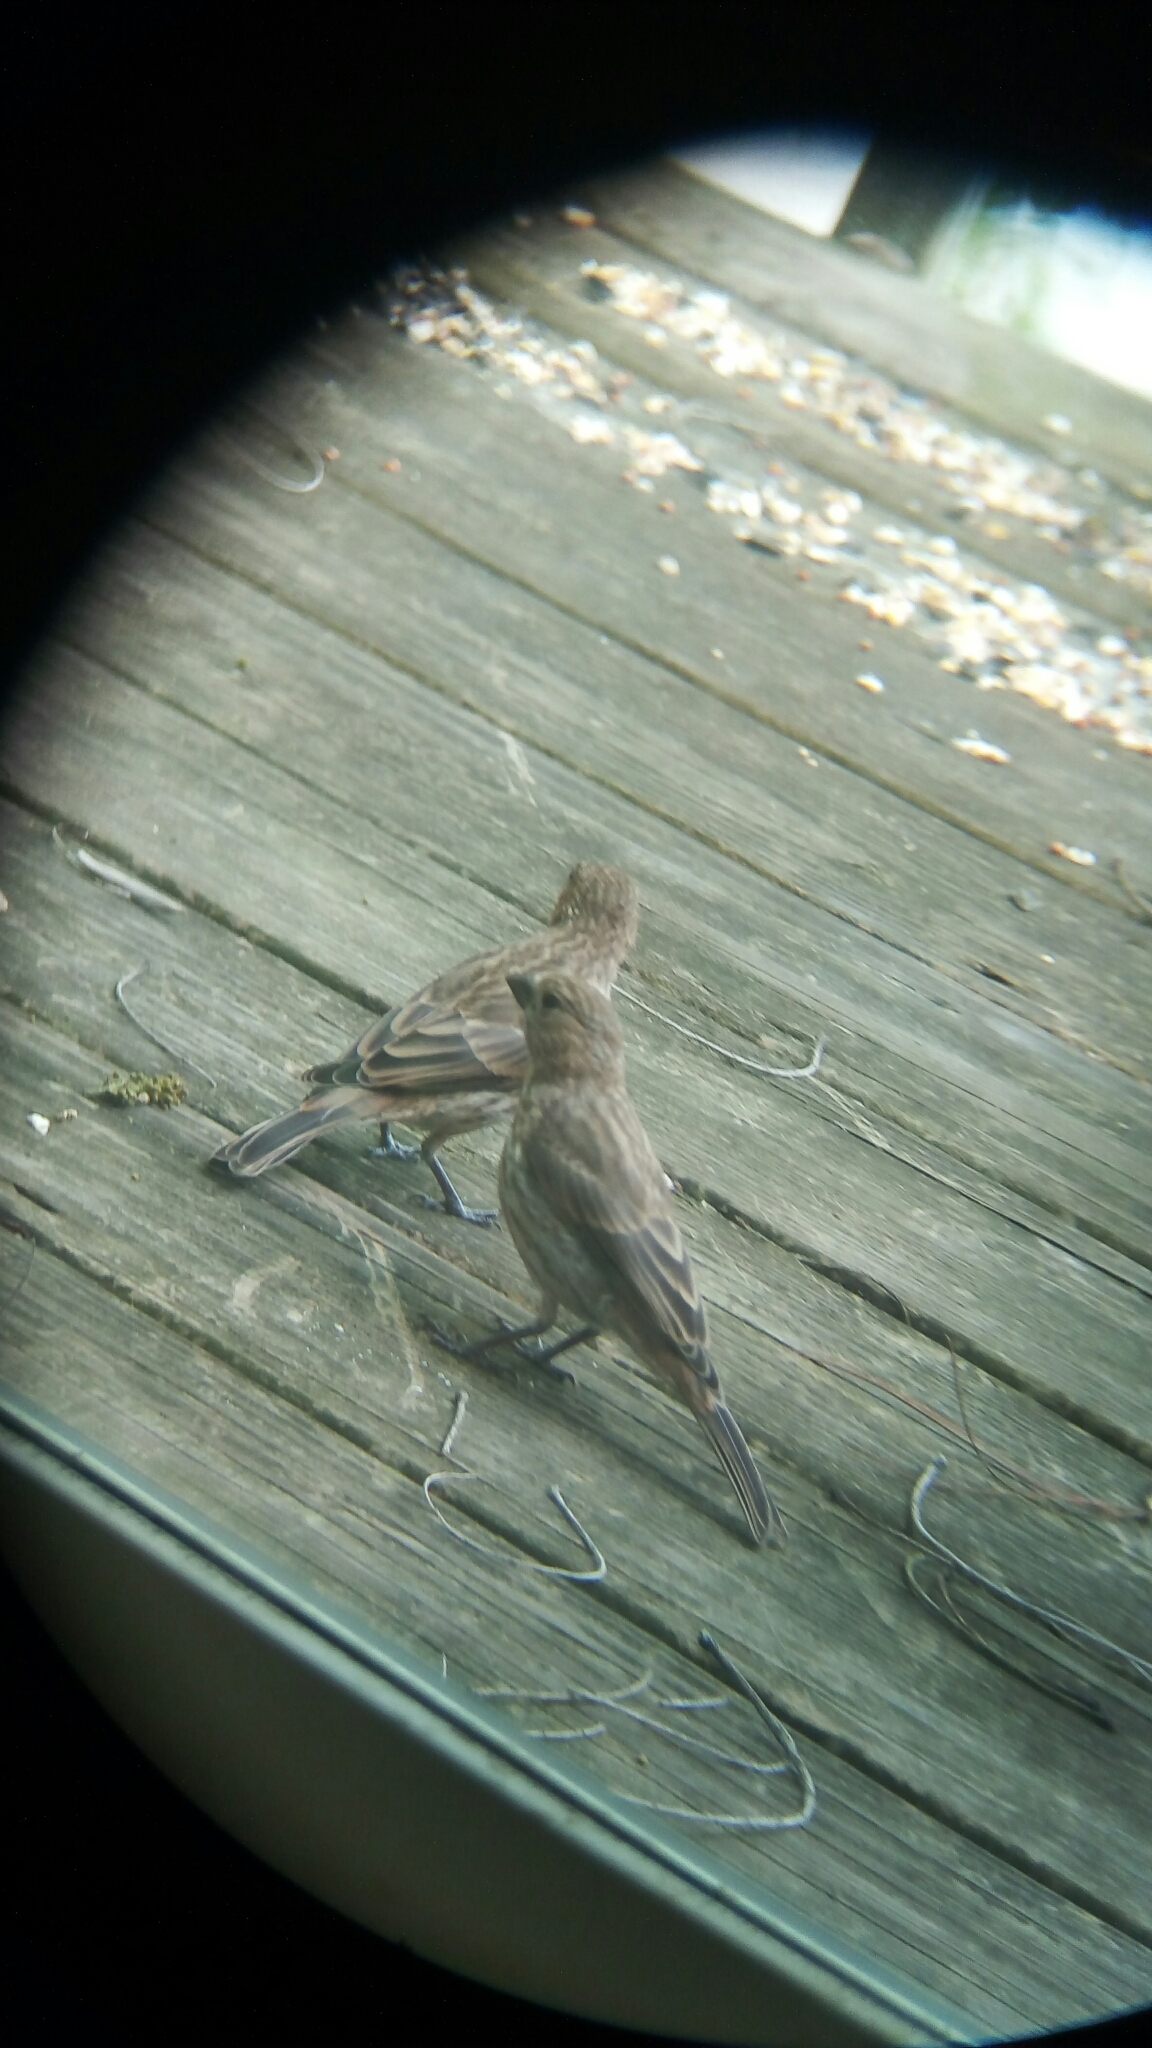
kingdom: Animalia
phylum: Chordata
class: Aves
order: Passeriformes
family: Fringillidae
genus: Haemorhous
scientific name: Haemorhous mexicanus
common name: House finch
